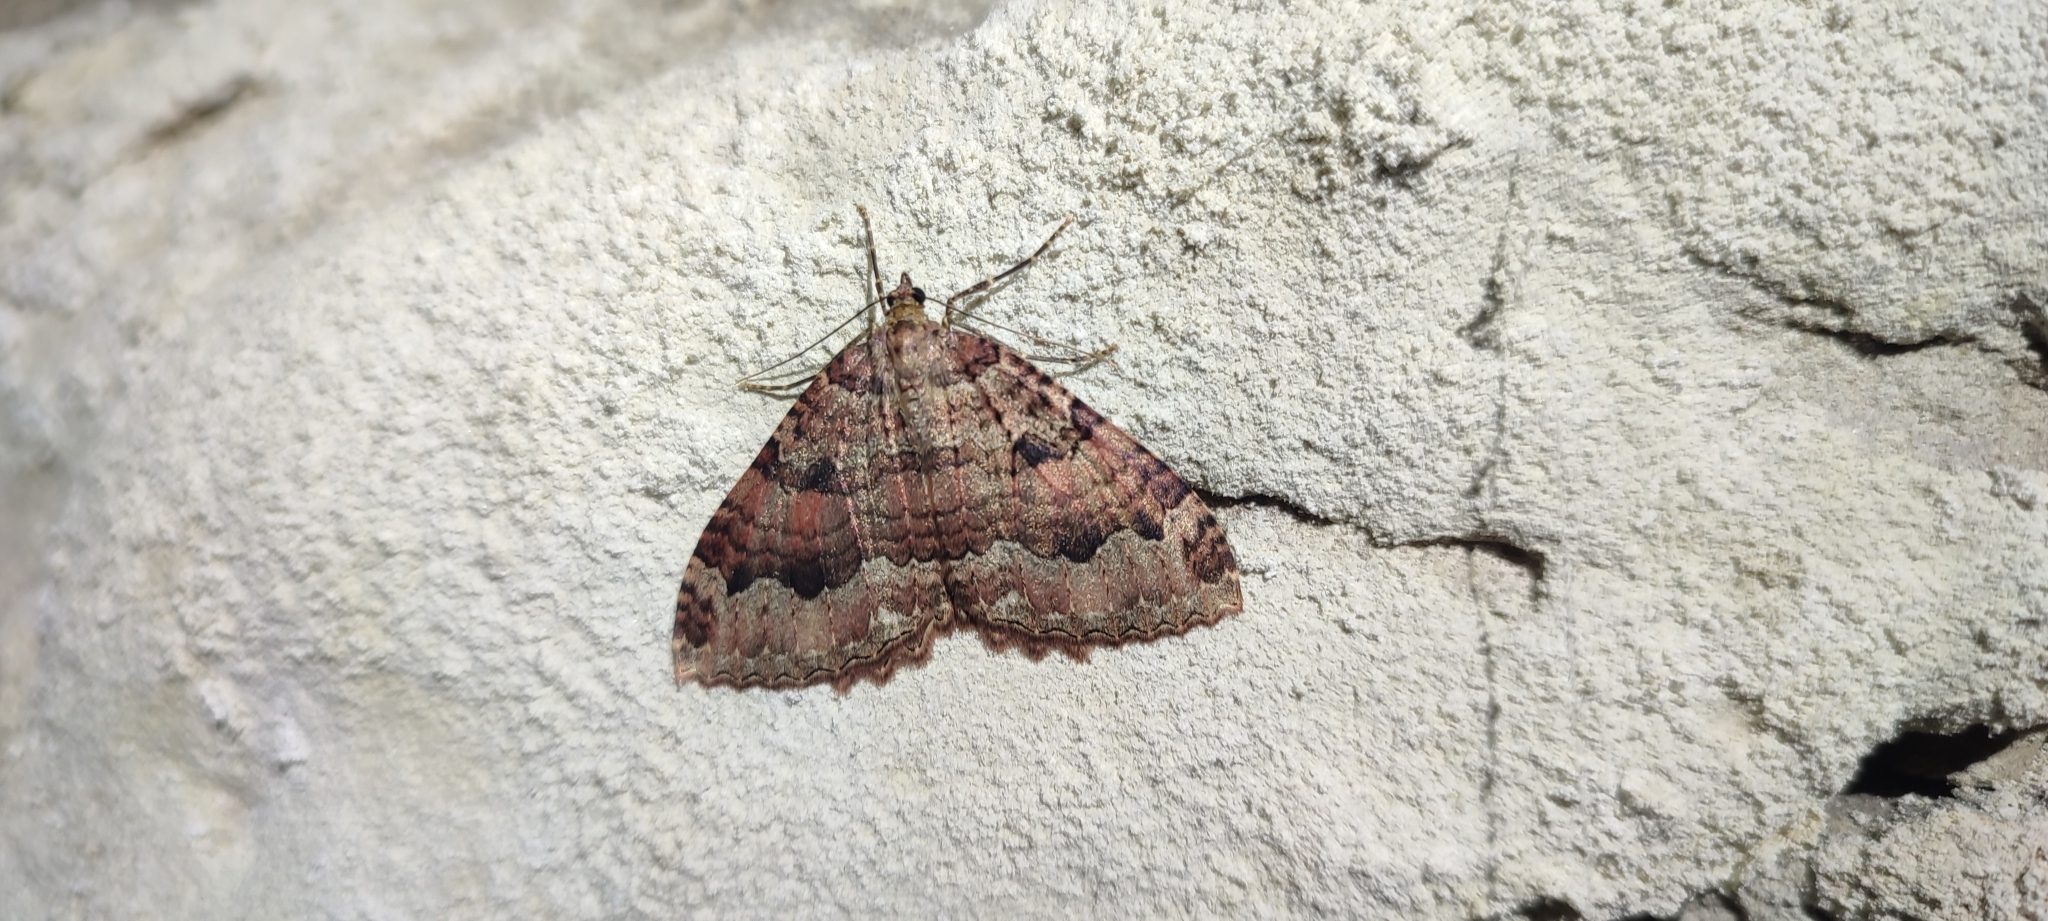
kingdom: Animalia
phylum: Arthropoda
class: Insecta
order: Lepidoptera
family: Geometridae
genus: Triphosa
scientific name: Triphosa dubitata
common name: Tissue
